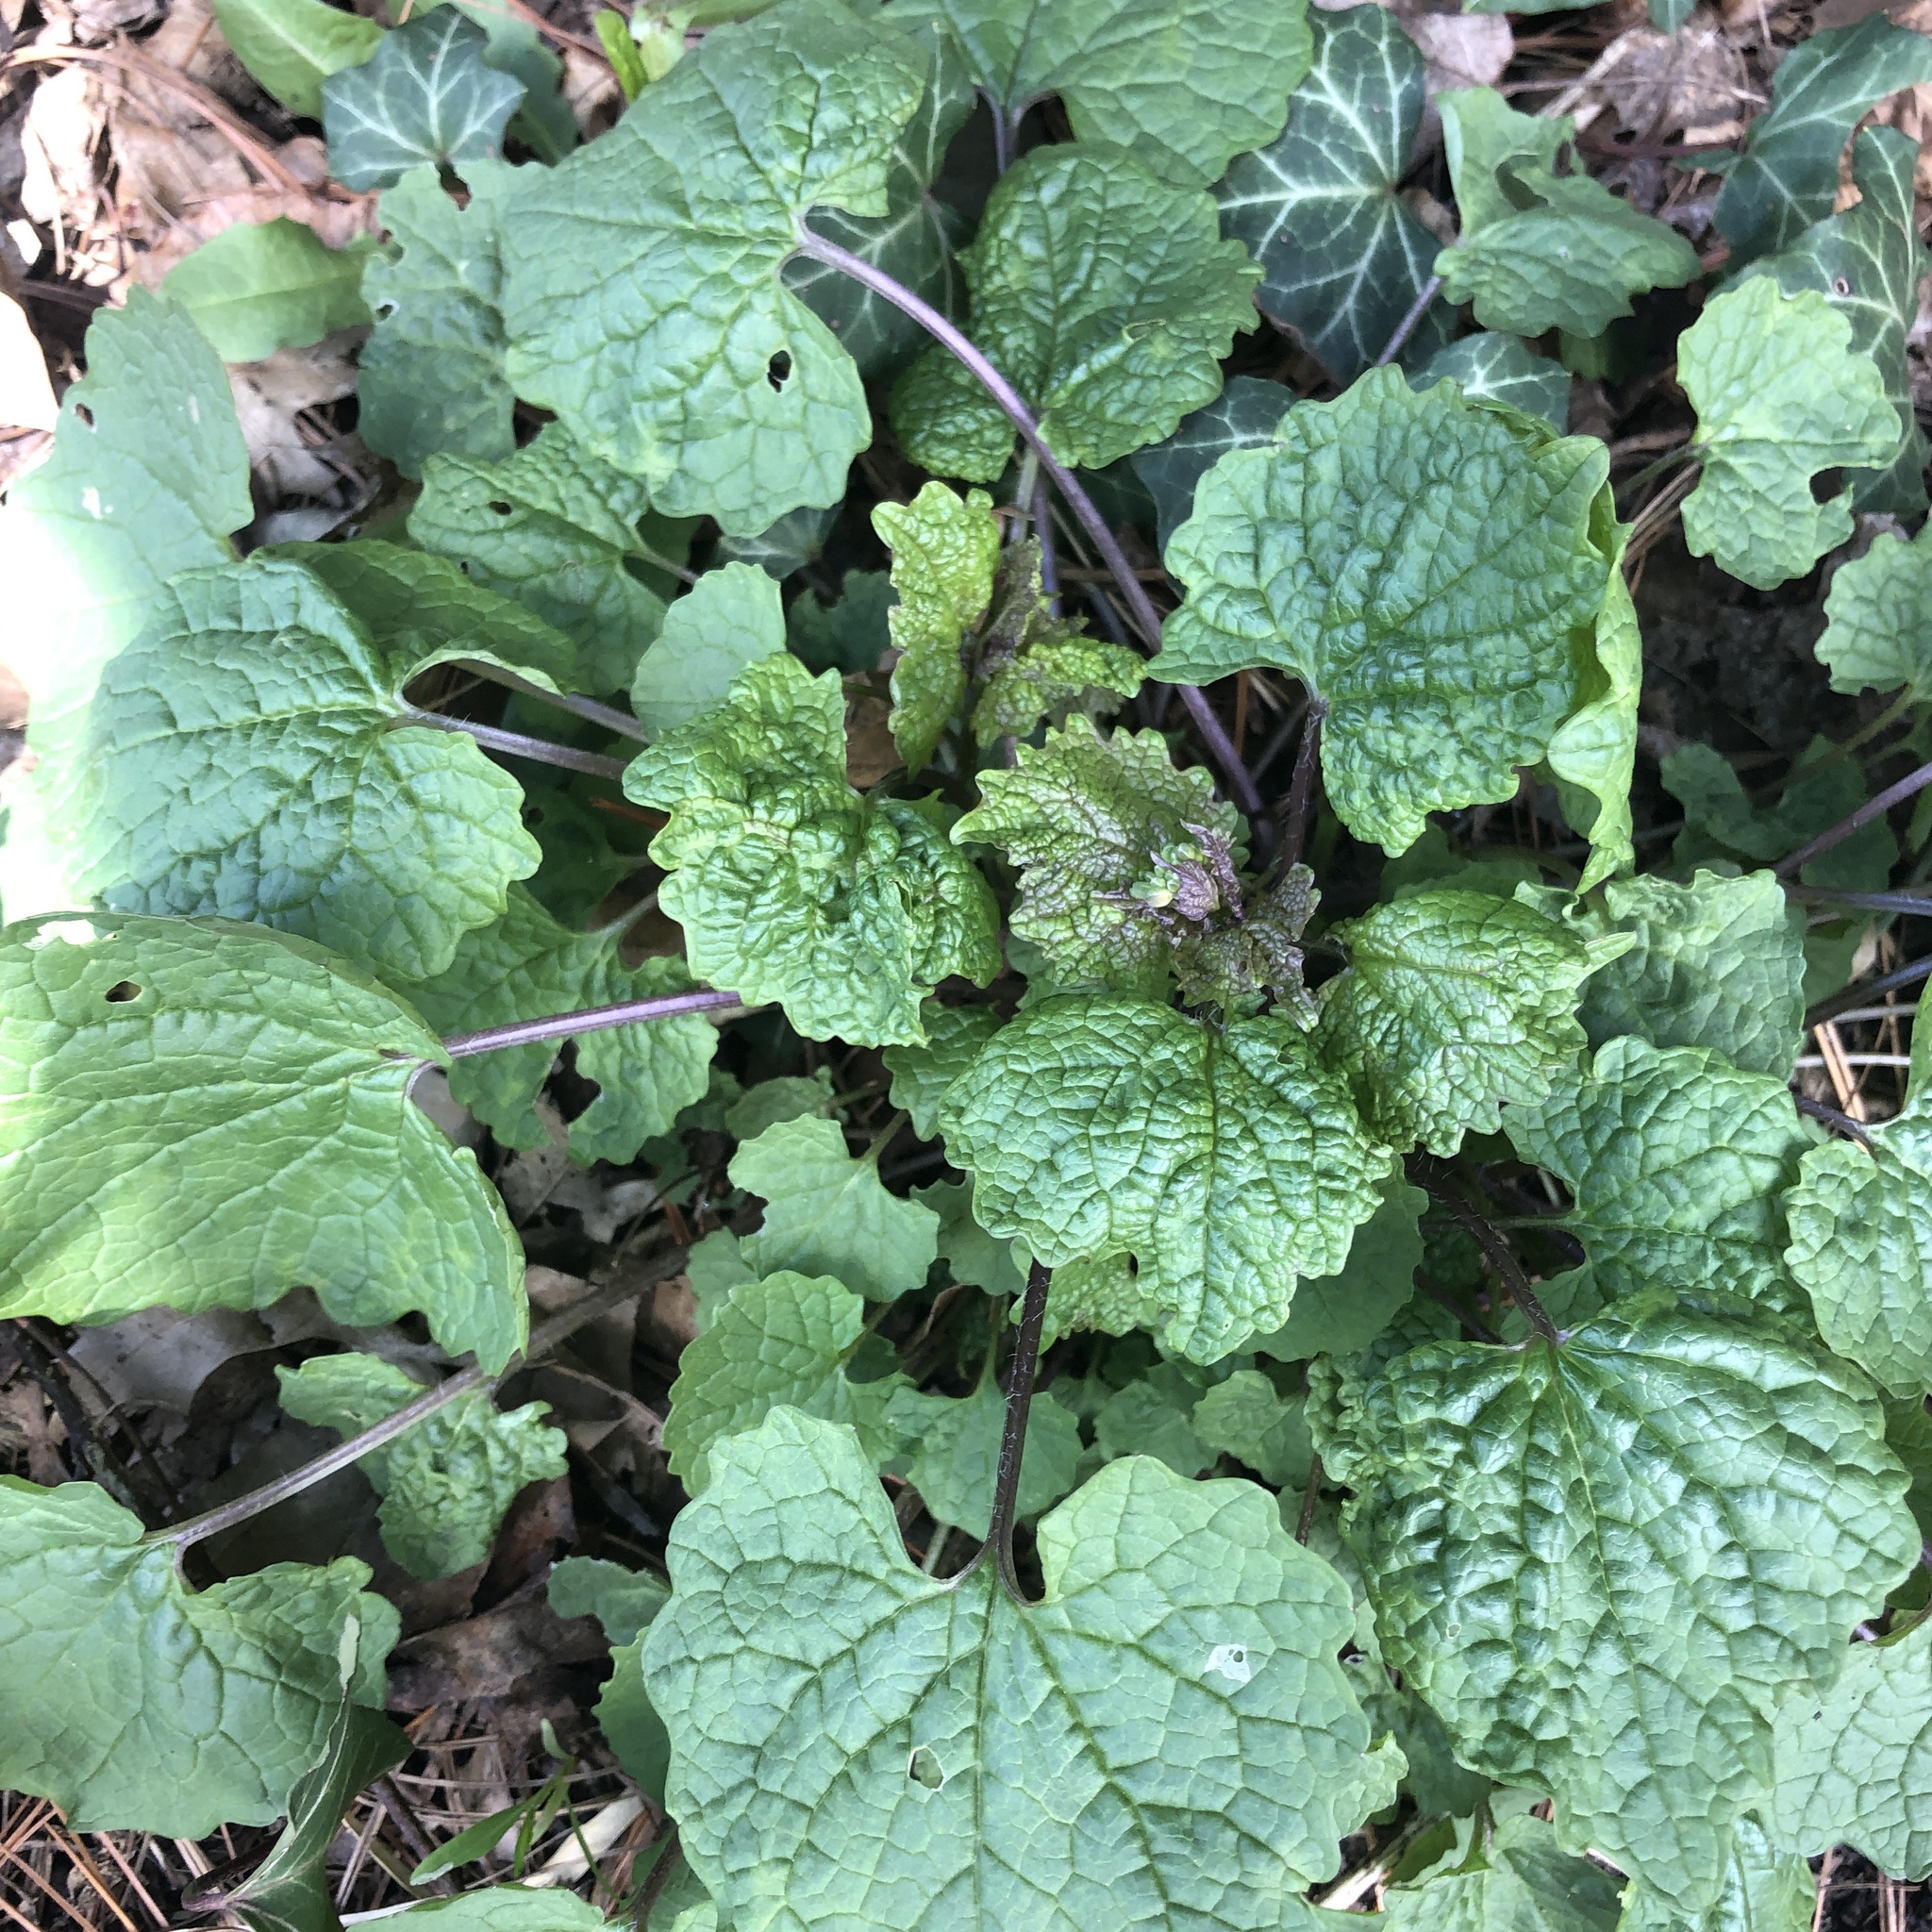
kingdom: Plantae
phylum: Tracheophyta
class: Magnoliopsida
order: Brassicales
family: Brassicaceae
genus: Alliaria
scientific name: Alliaria petiolata
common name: Garlic mustard
